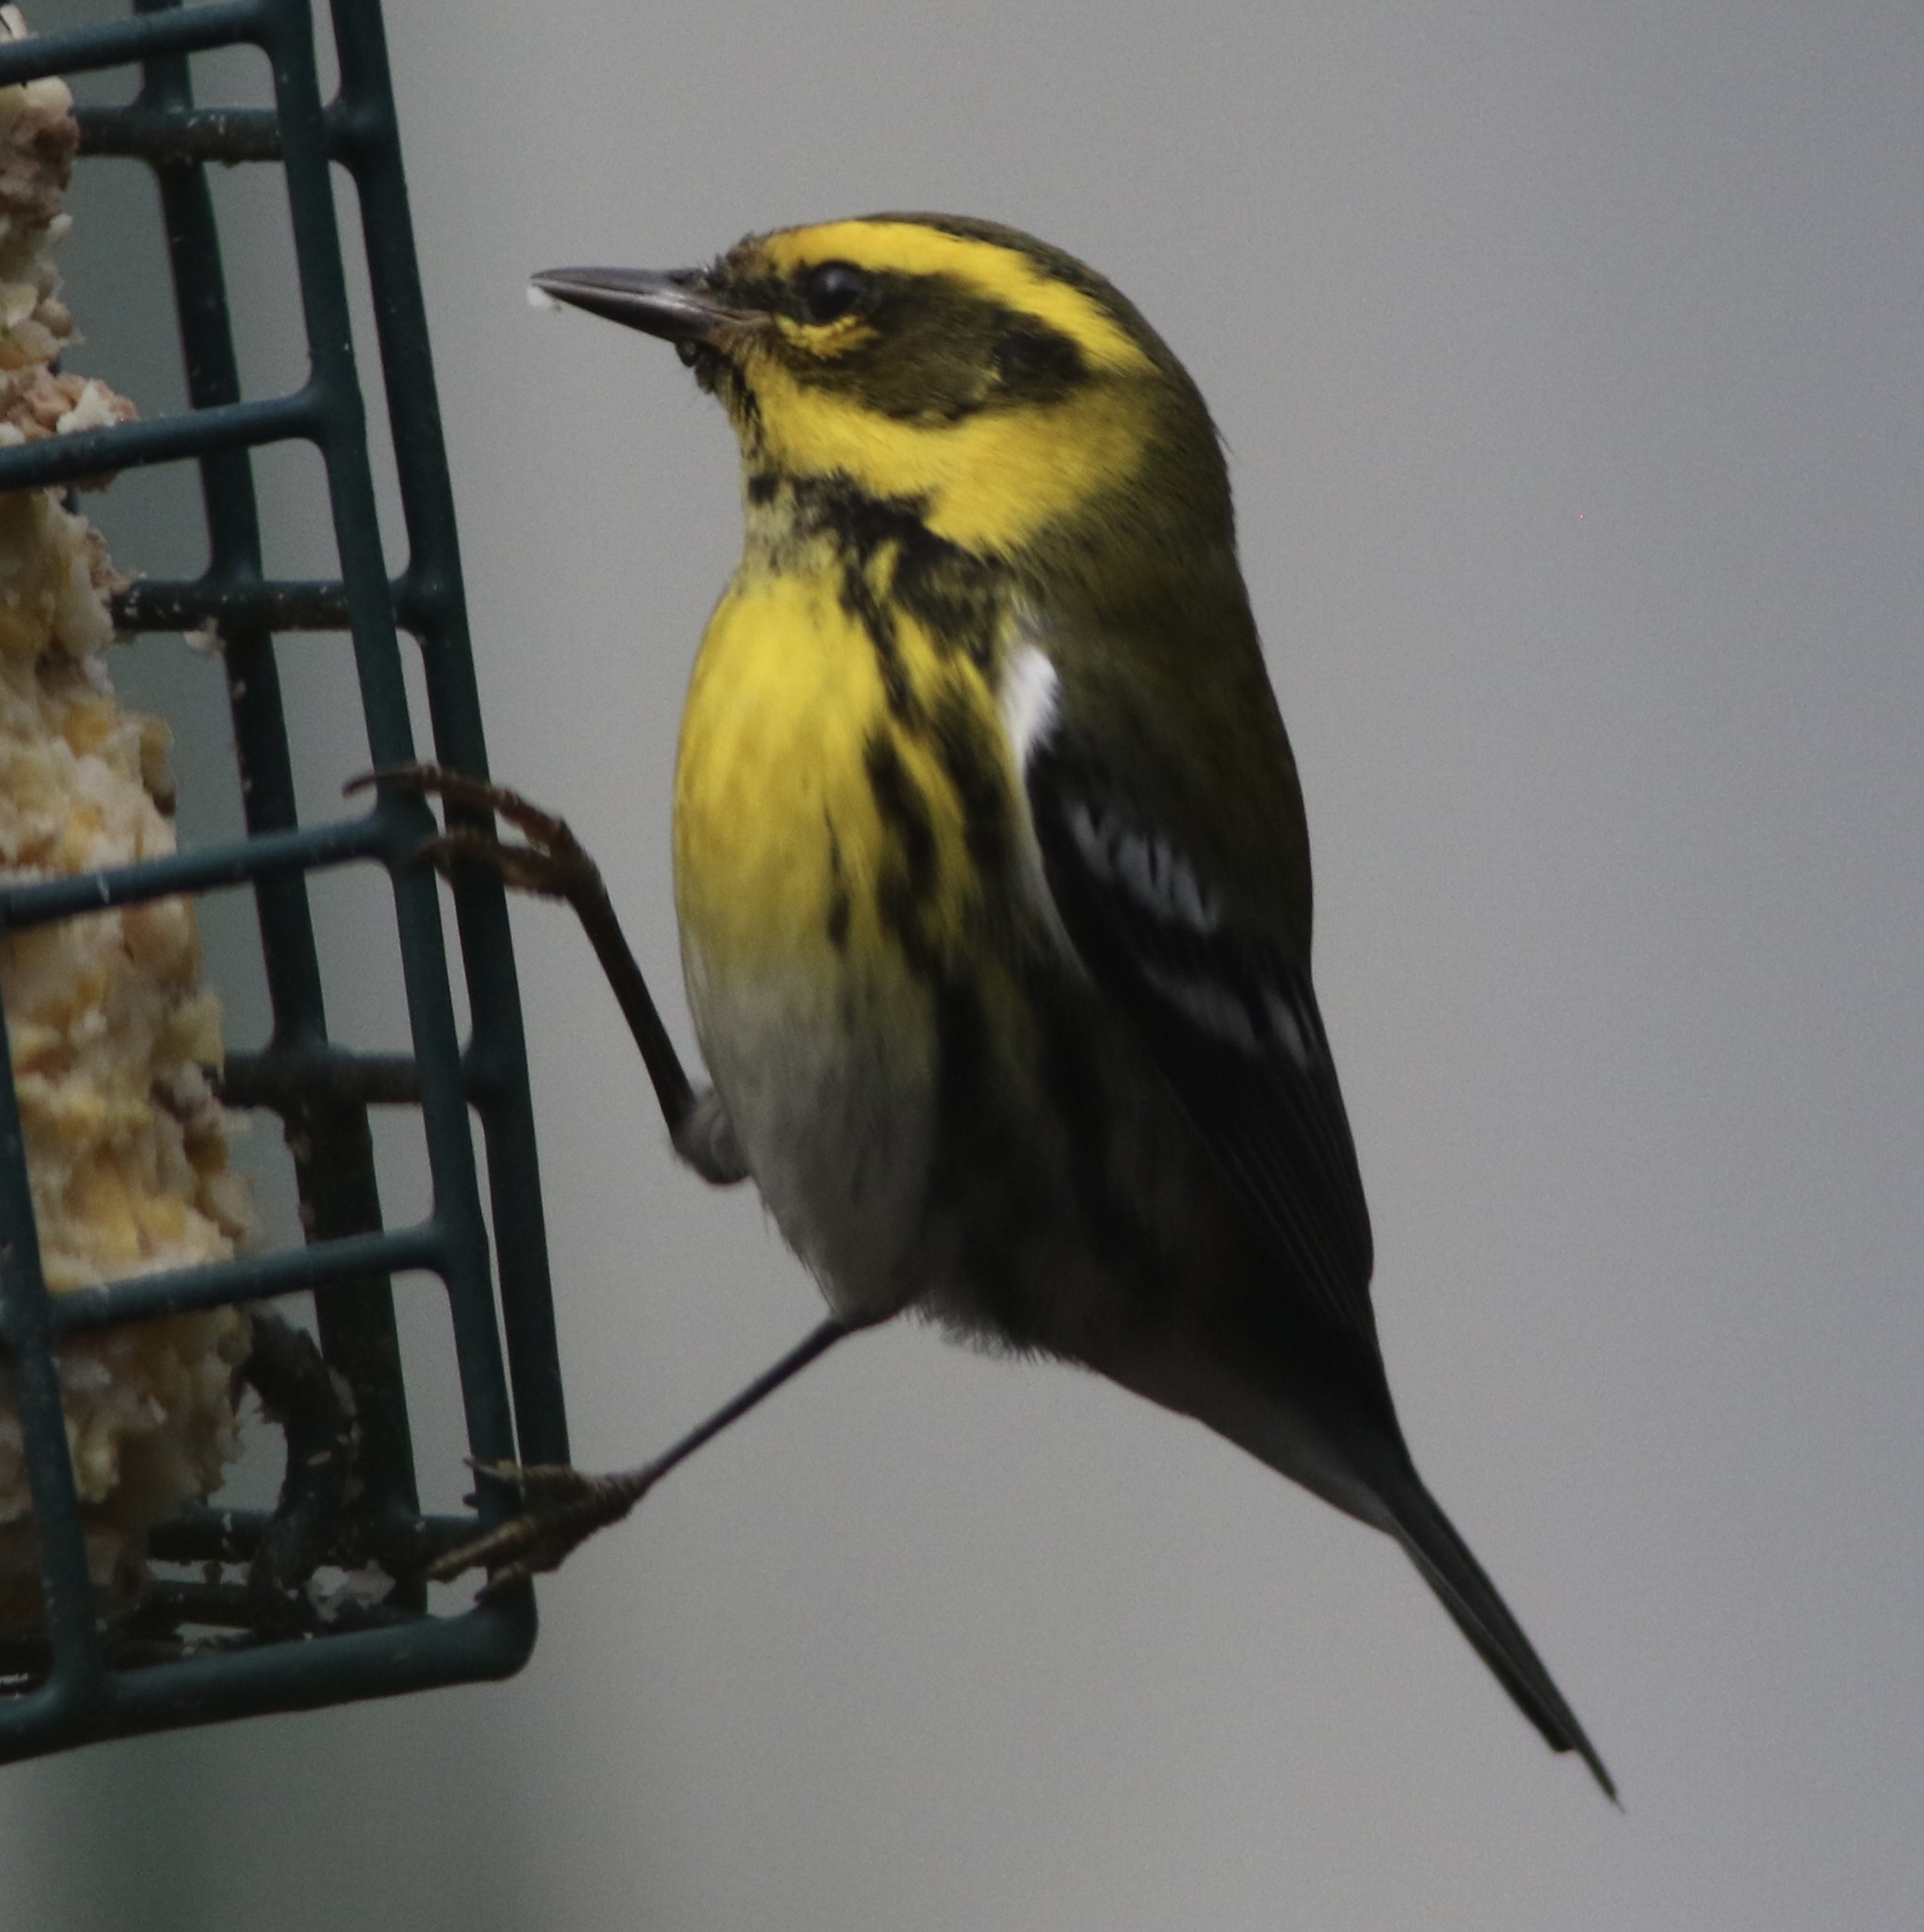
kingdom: Animalia
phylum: Chordata
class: Aves
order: Passeriformes
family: Parulidae
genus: Setophaga
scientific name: Setophaga townsendi
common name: Townsend's warbler
